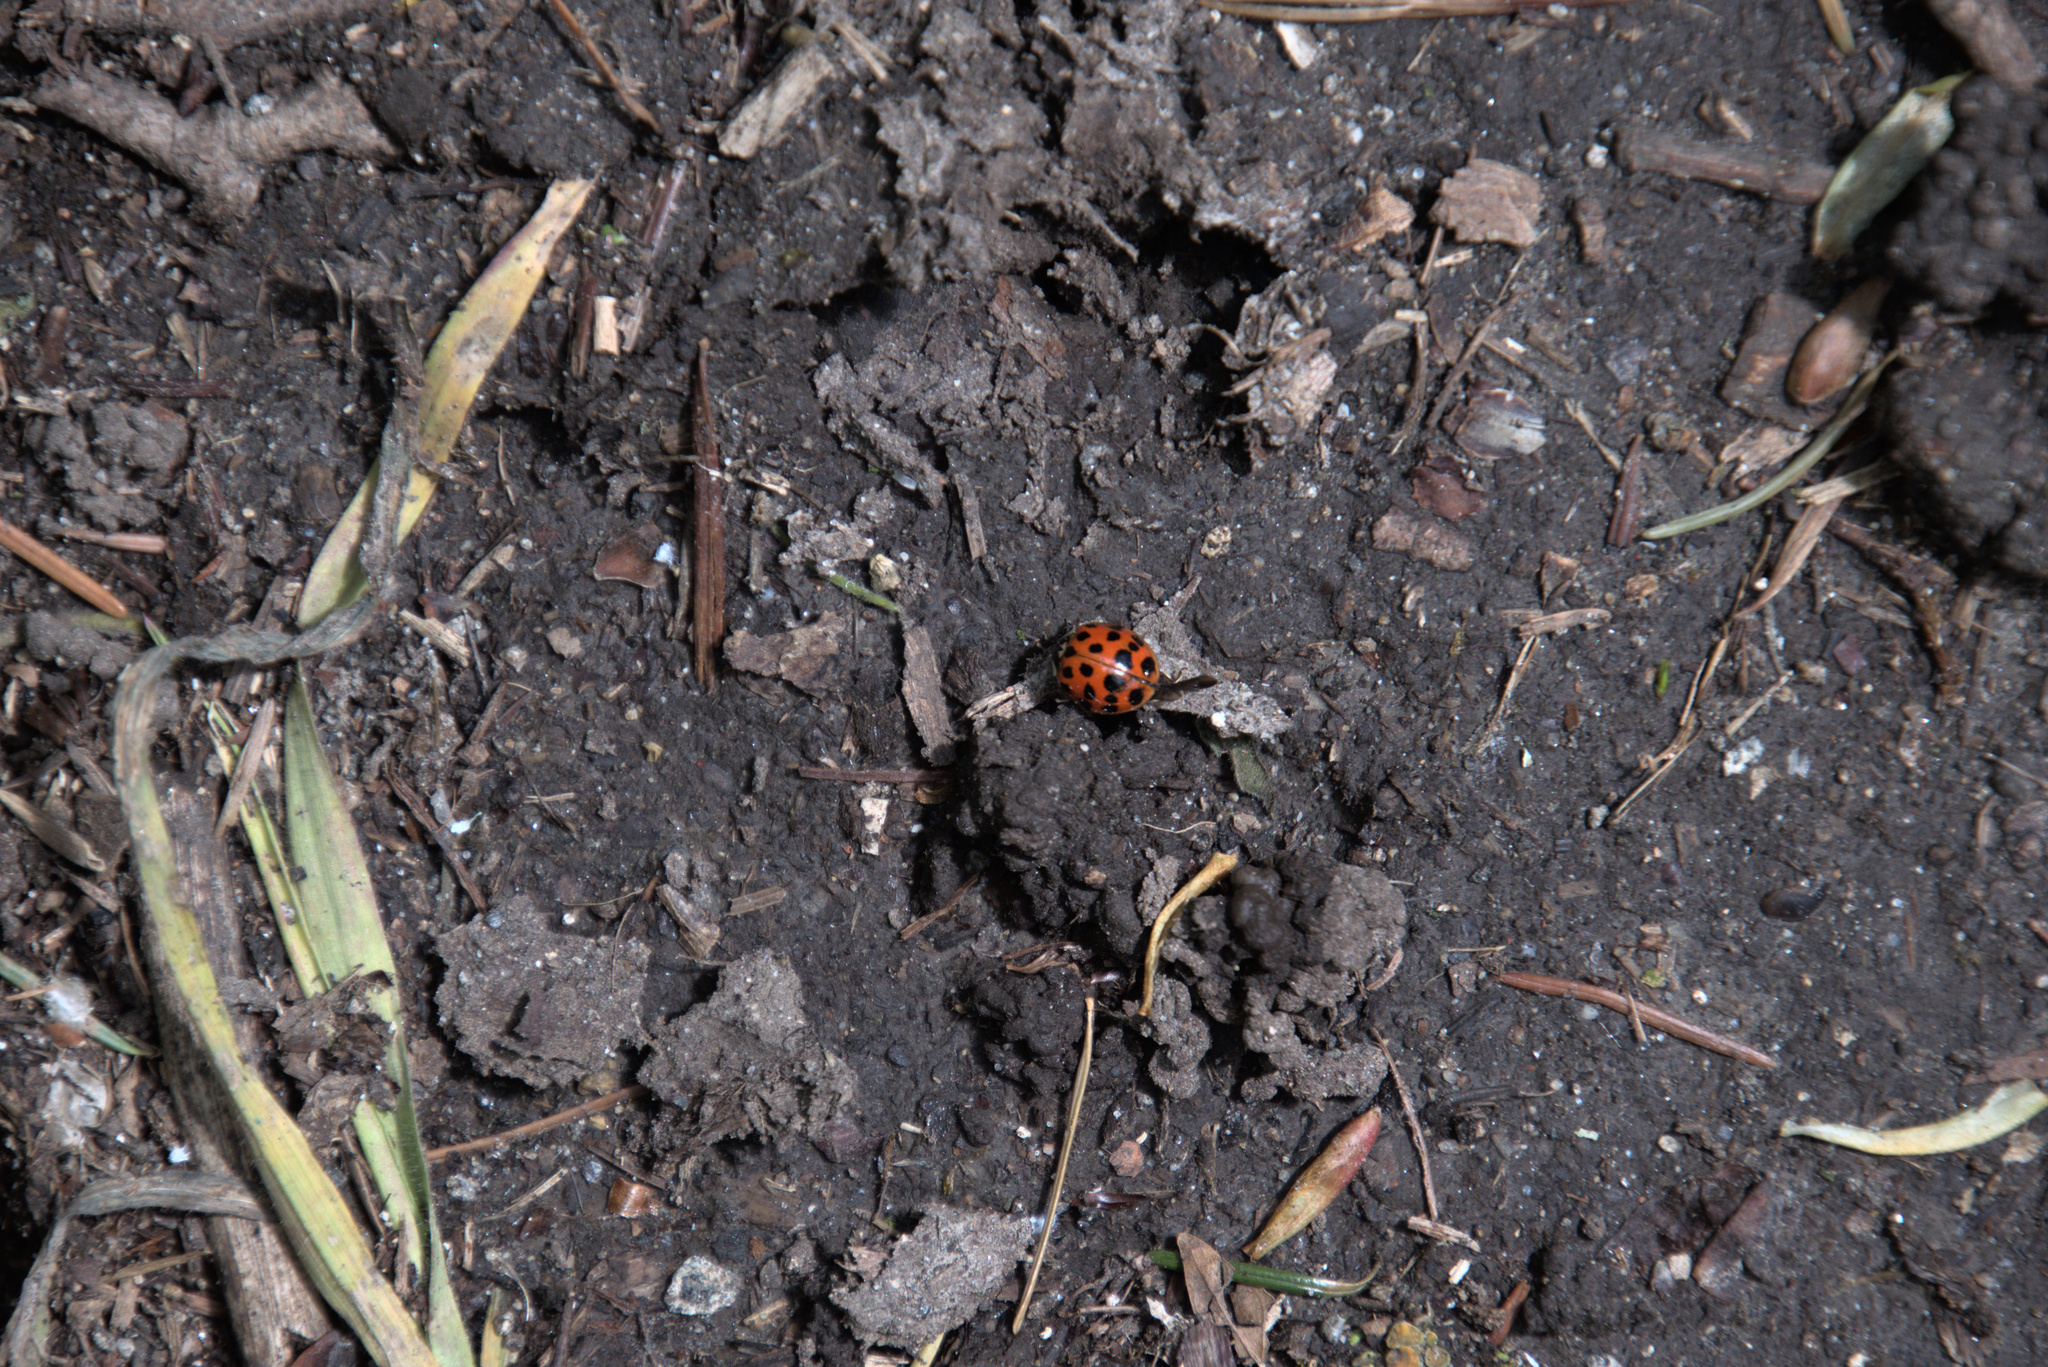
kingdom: Animalia
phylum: Arthropoda
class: Insecta
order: Coleoptera
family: Coccinellidae
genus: Harmonia
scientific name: Harmonia axyridis
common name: Harlequin ladybird
